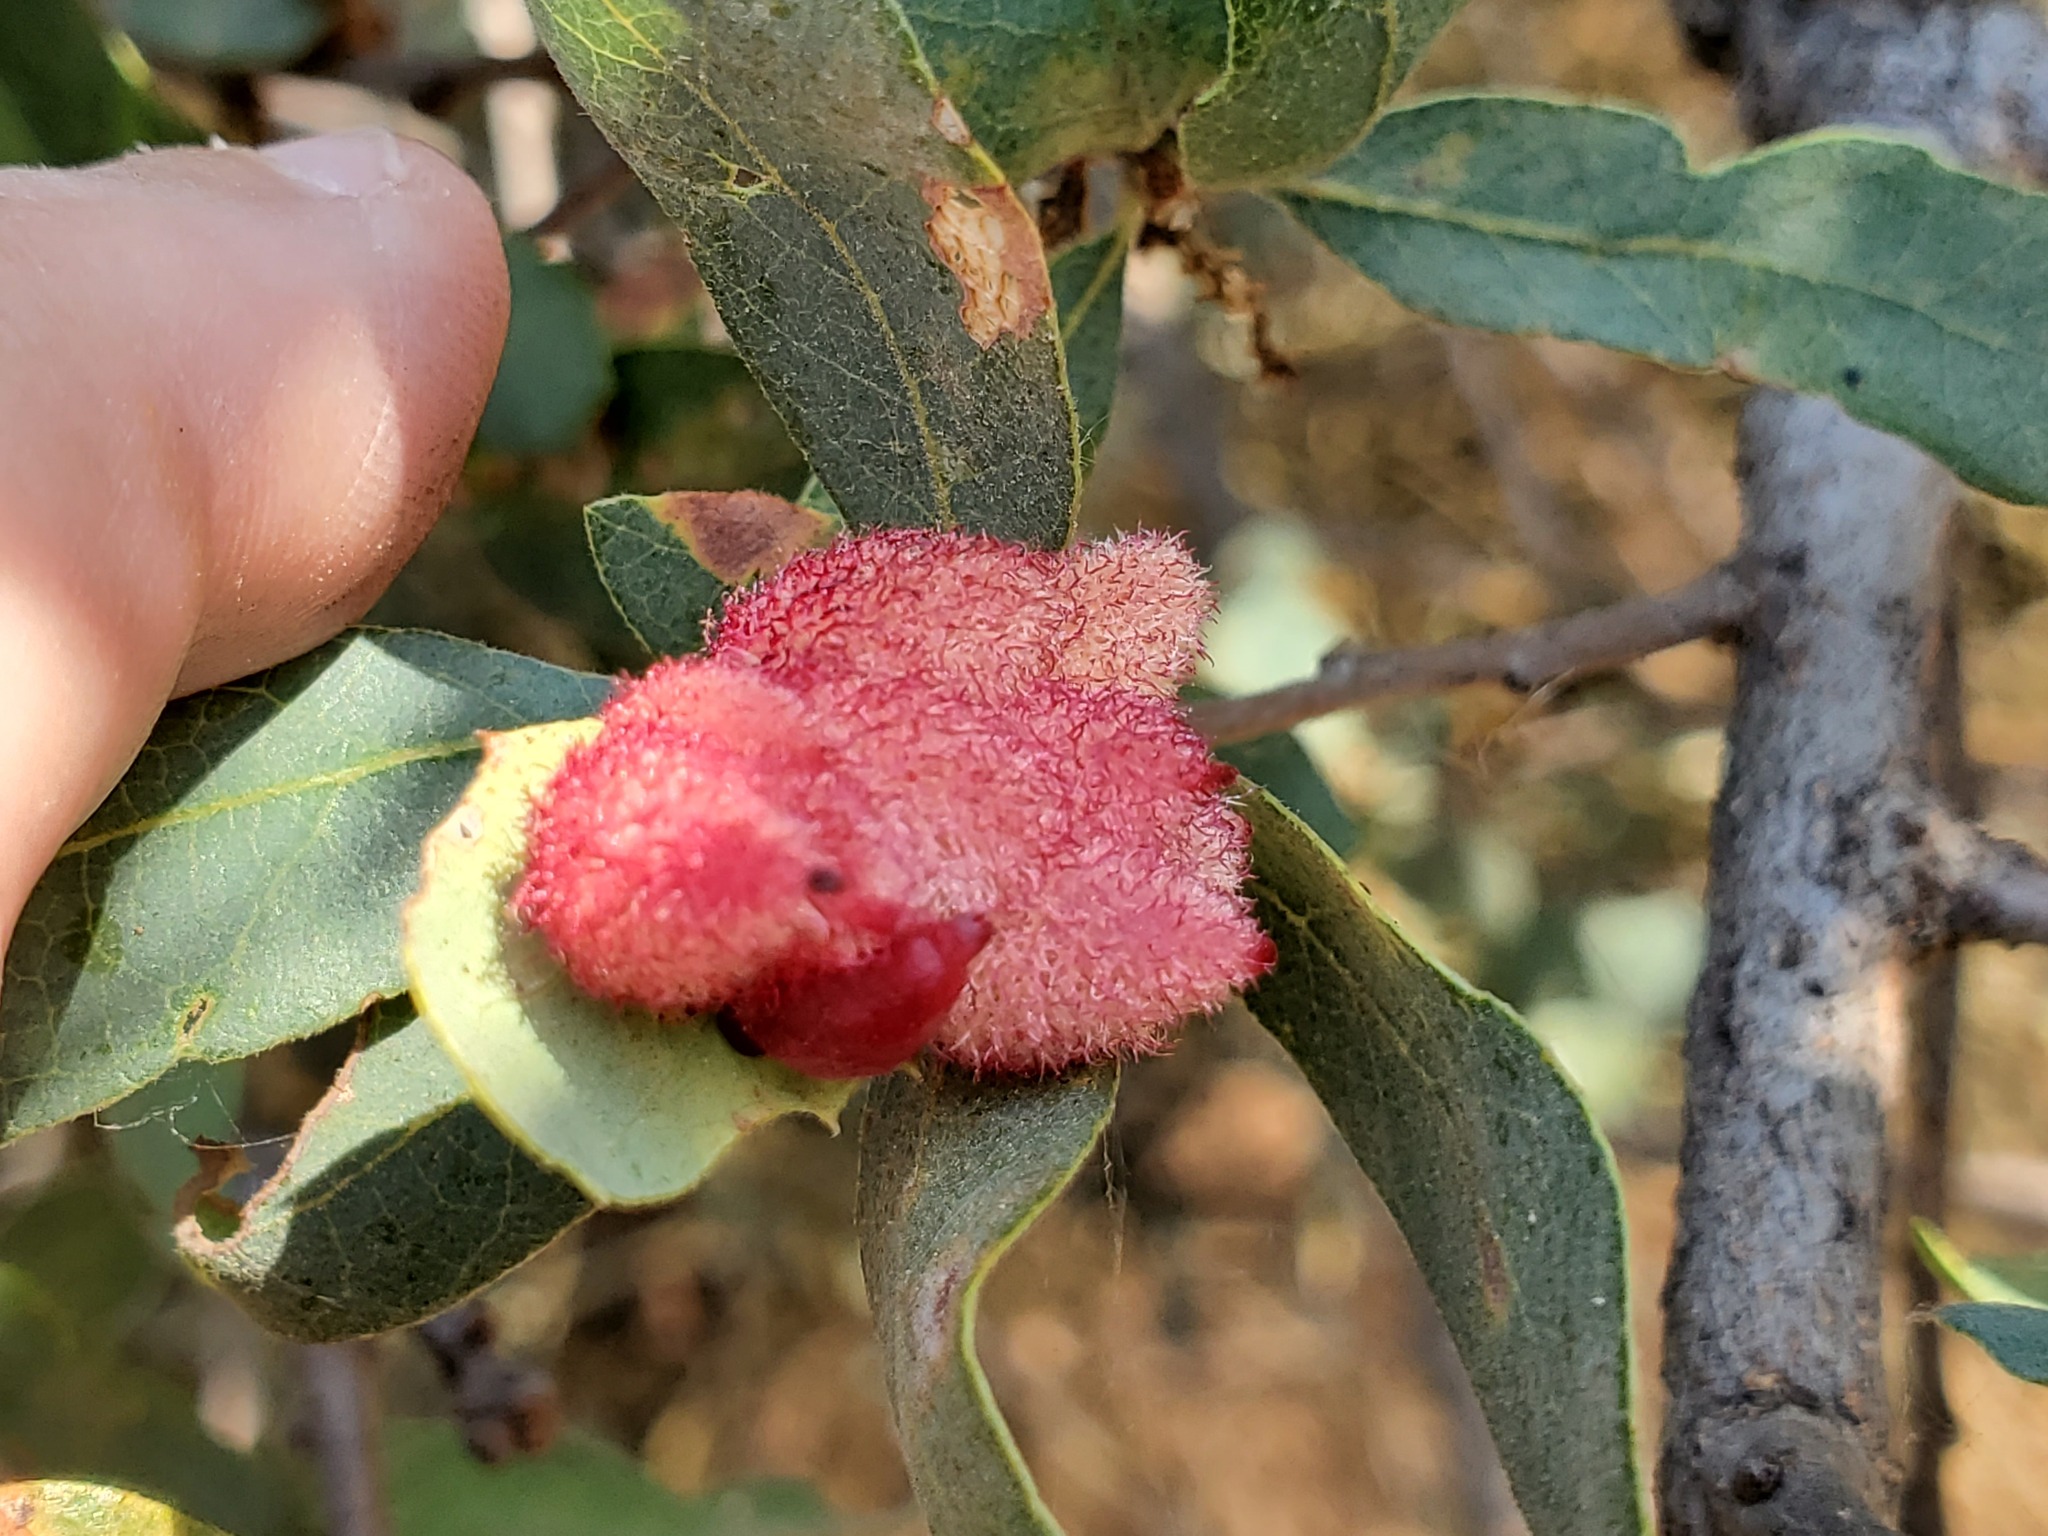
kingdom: Animalia
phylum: Arthropoda
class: Insecta
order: Hymenoptera
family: Cynipidae
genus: Andricus
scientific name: Andricus
